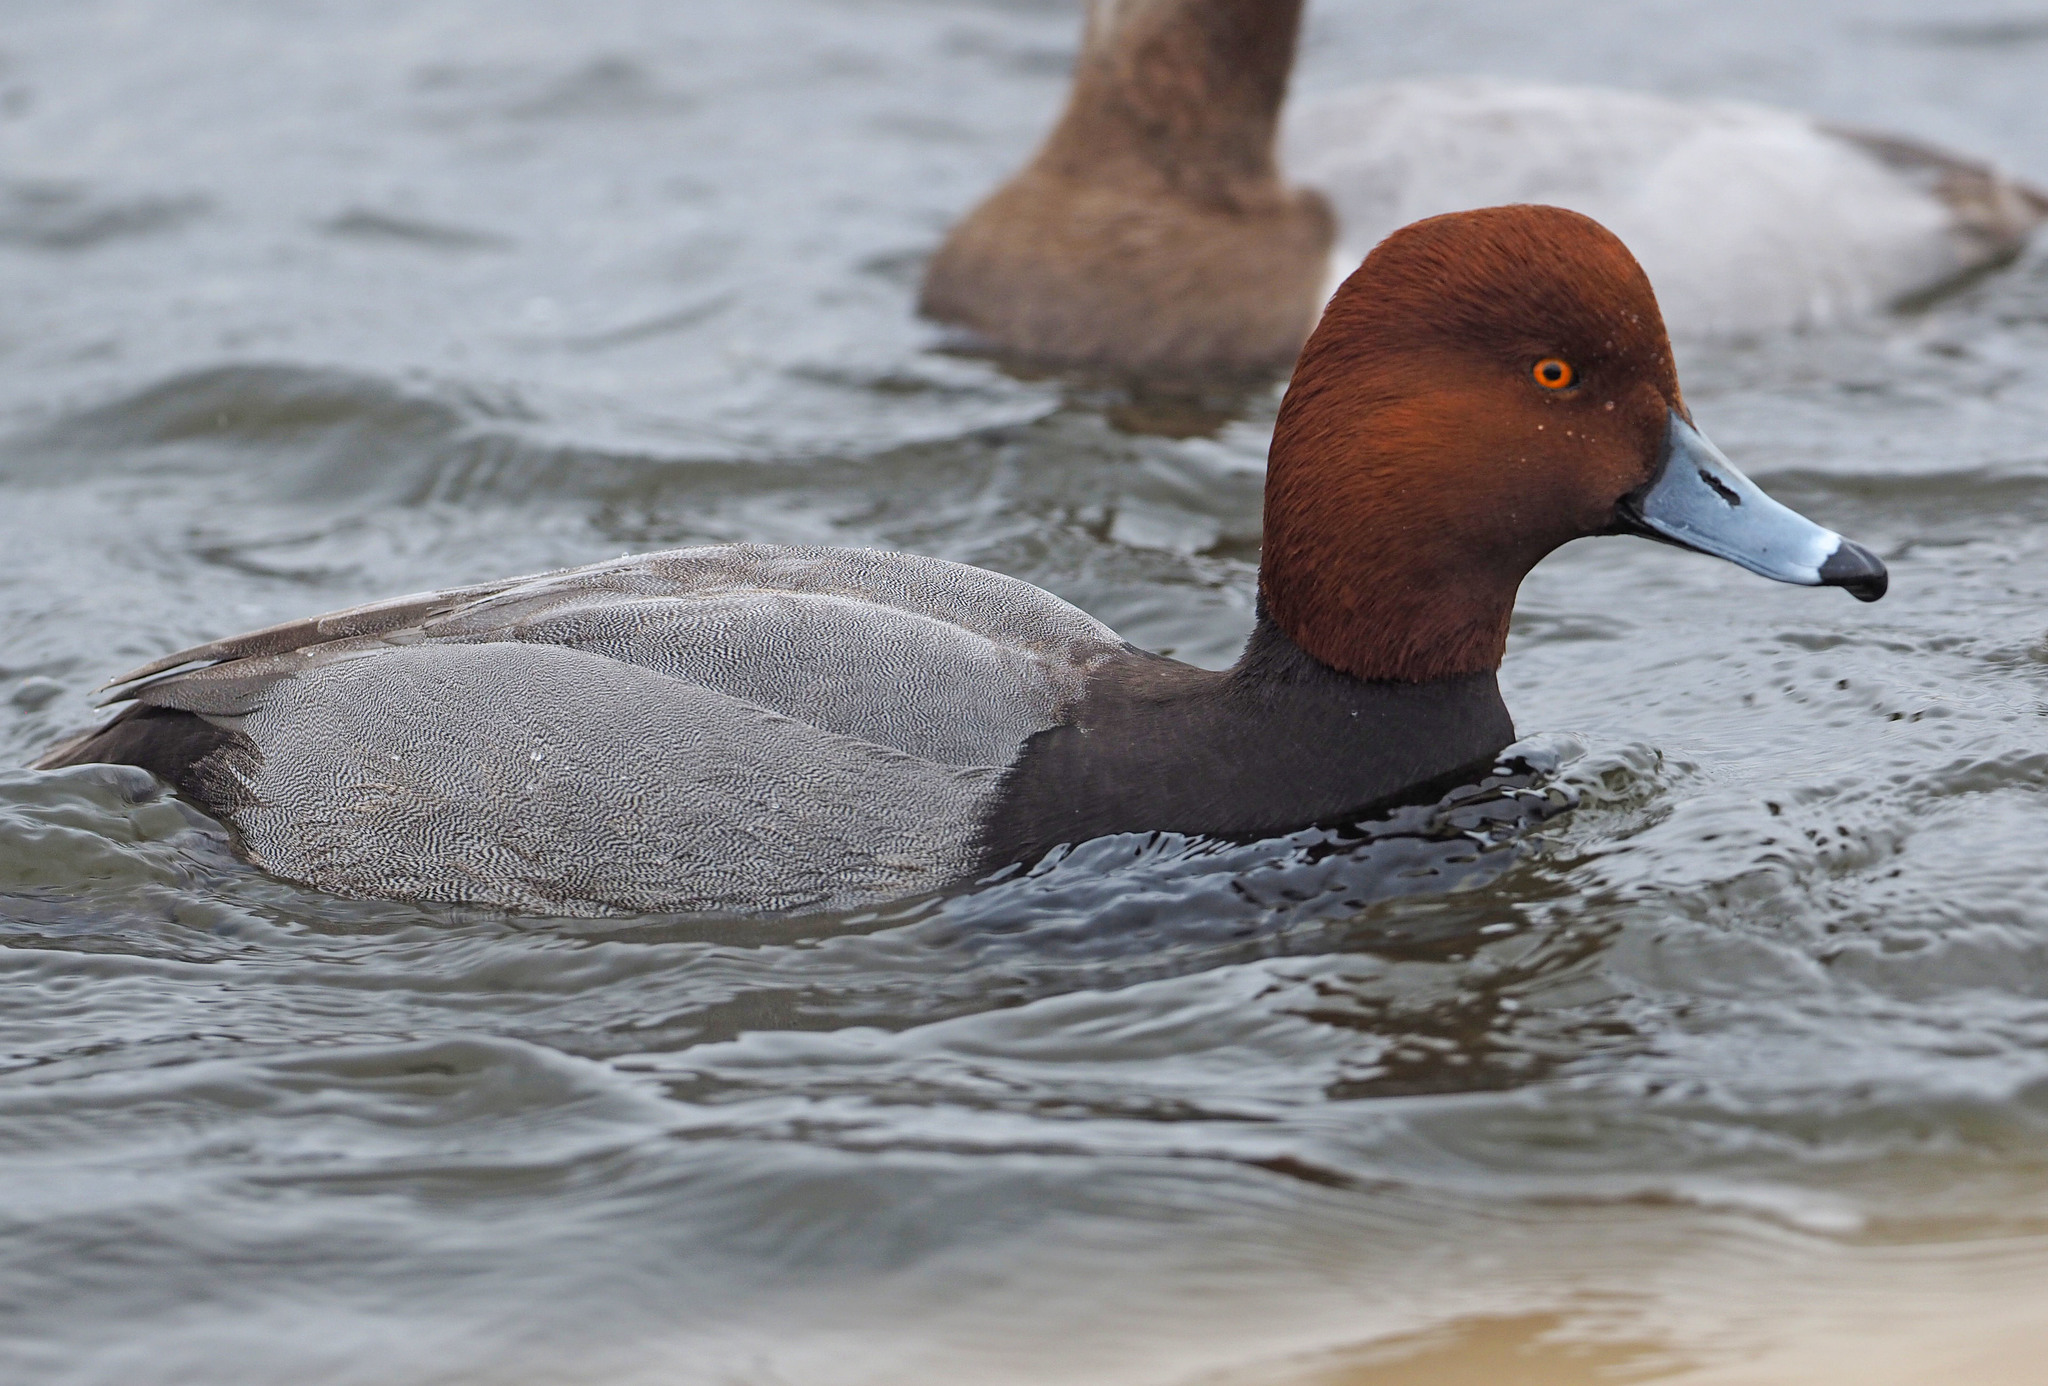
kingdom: Animalia
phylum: Chordata
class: Aves
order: Anseriformes
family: Anatidae
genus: Aythya
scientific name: Aythya americana
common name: Redhead
